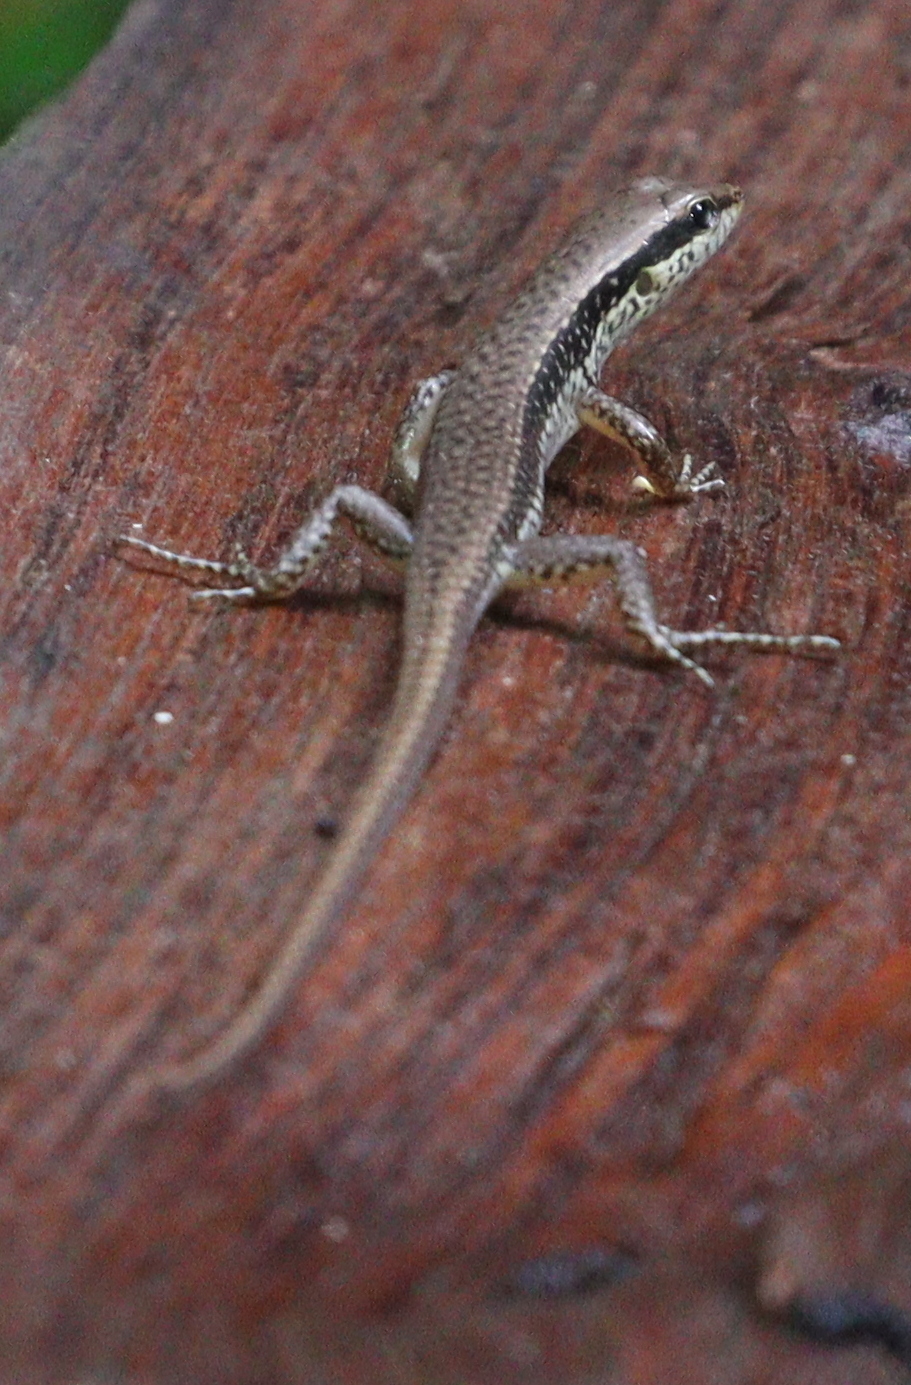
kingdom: Animalia
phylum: Chordata
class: Squamata
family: Scincidae
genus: Sphenomorphus
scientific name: Sphenomorphus maculatus
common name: Maculated forest skink
